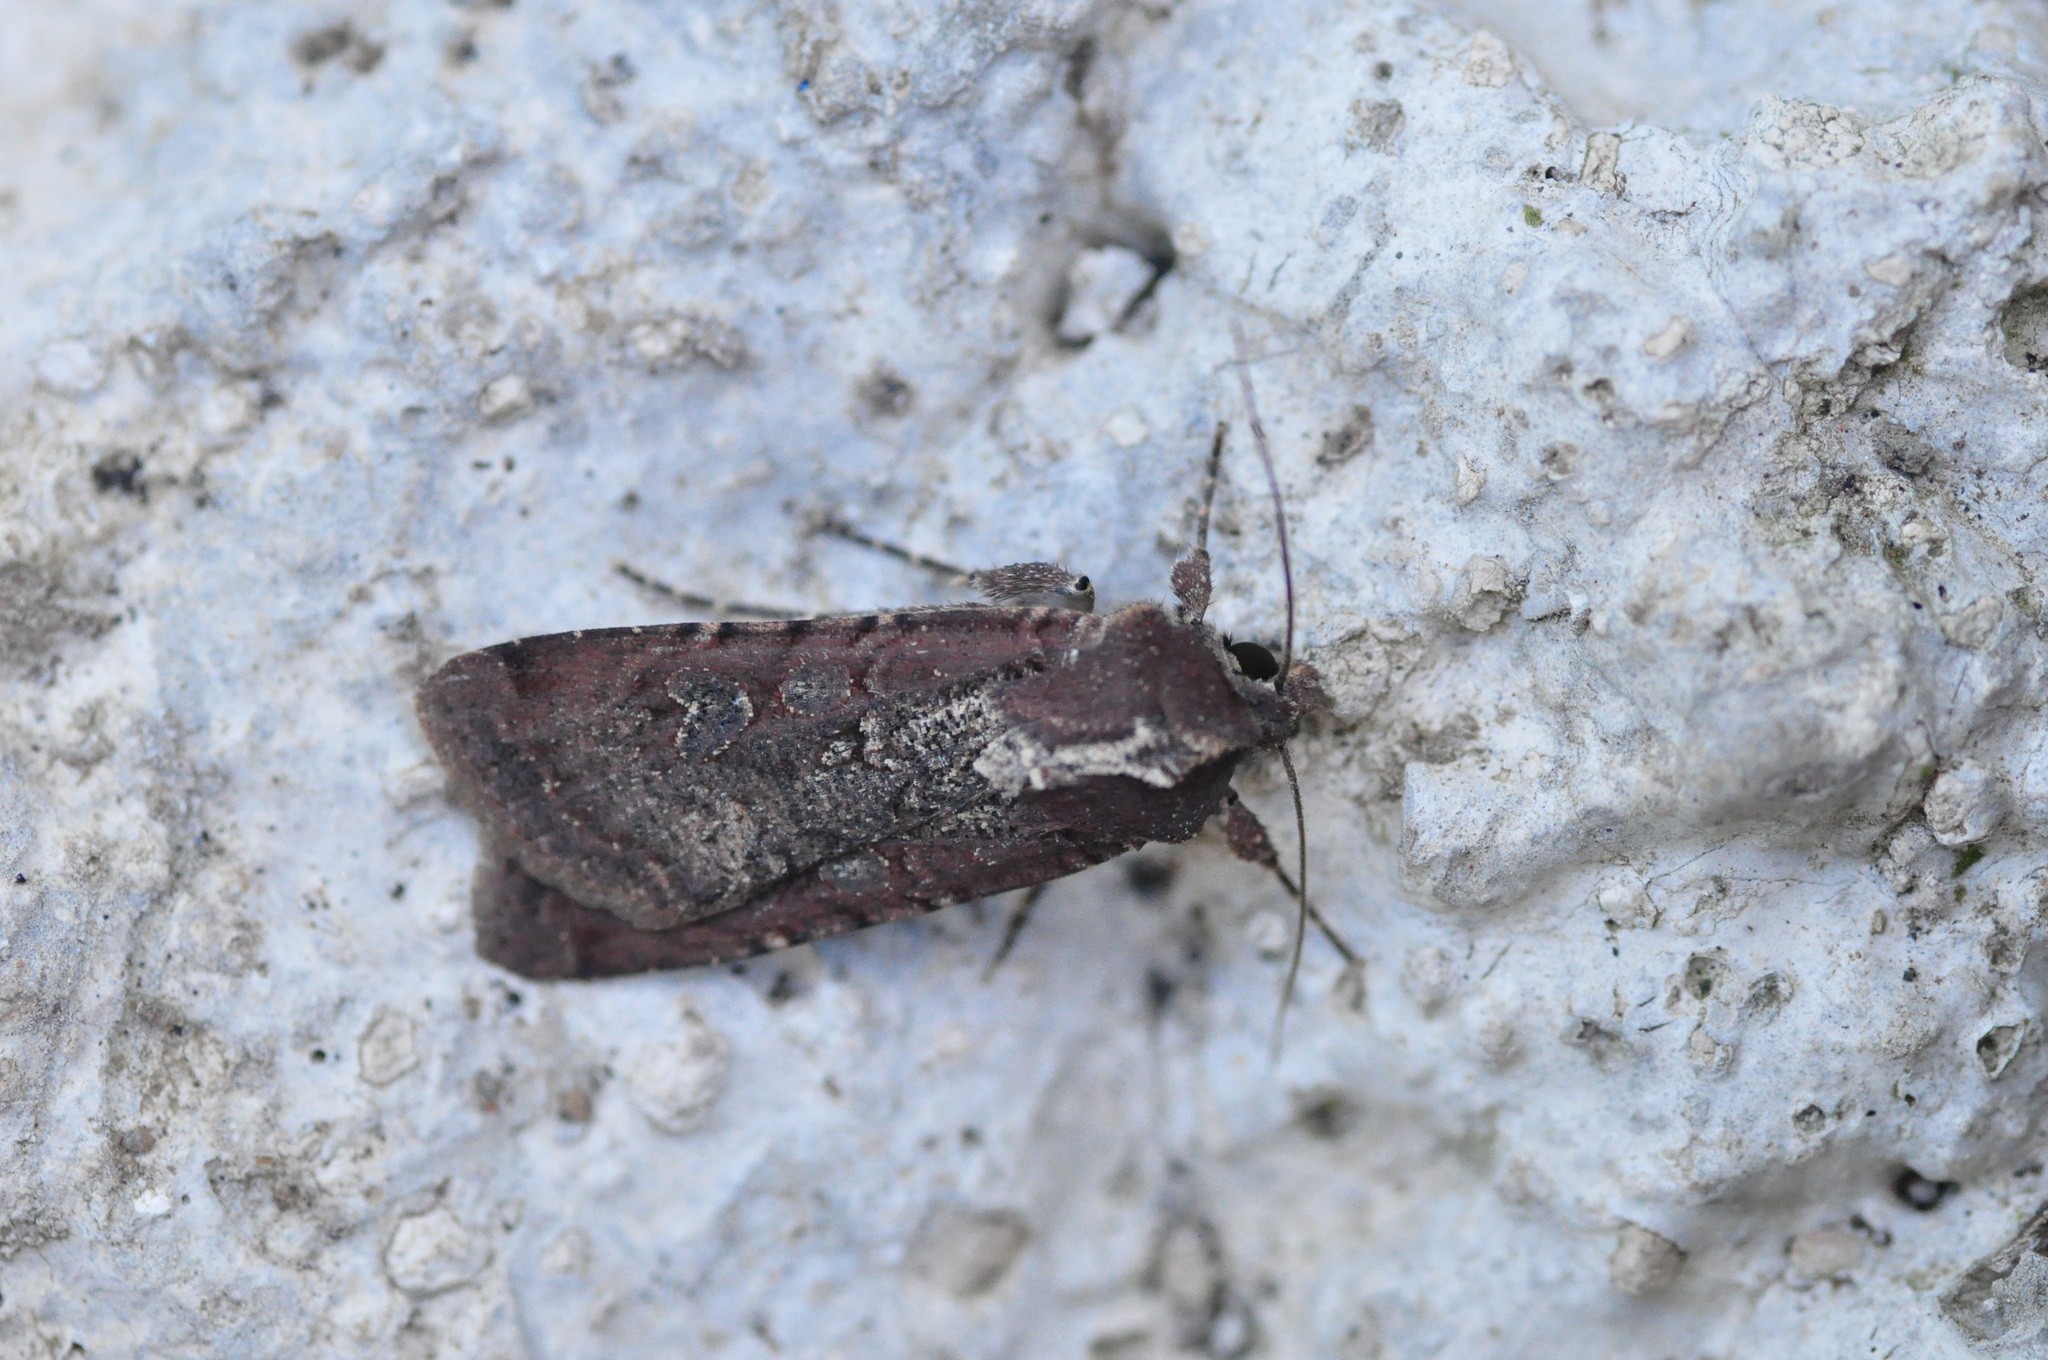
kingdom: Animalia
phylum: Arthropoda
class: Insecta
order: Lepidoptera
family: Noctuidae
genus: Peridroma
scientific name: Peridroma saucia
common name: Pearly underwing
